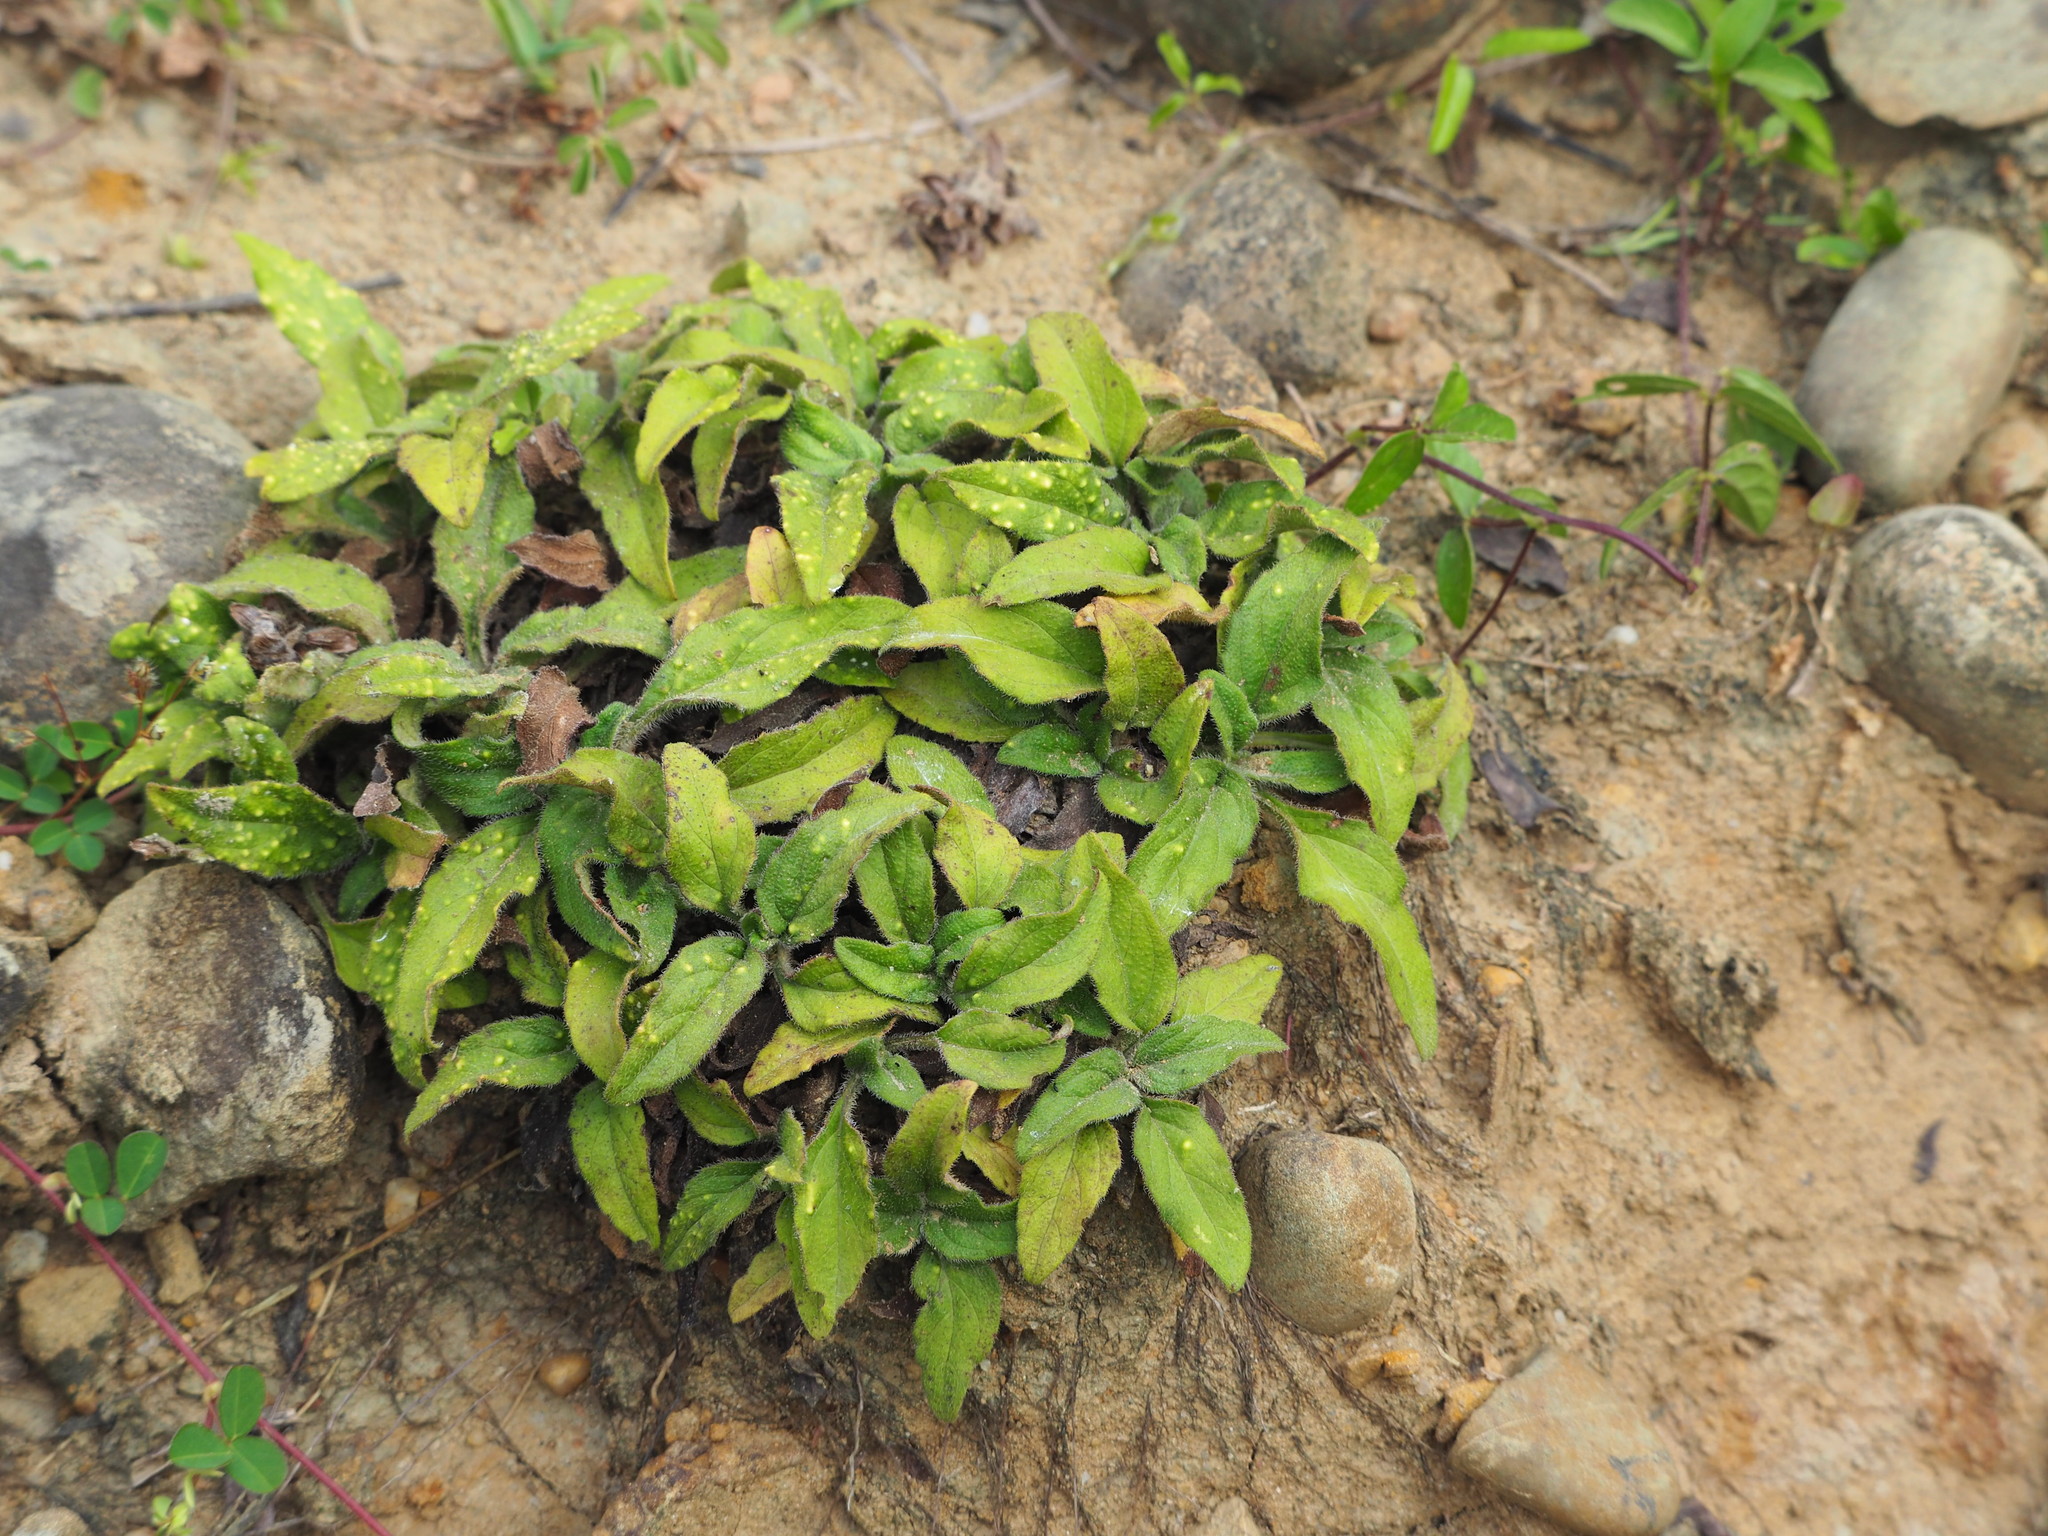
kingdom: Plantae
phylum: Tracheophyta
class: Magnoliopsida
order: Lamiales
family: Lamiaceae
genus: Prunella
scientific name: Prunella vulgaris
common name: Heal-all
